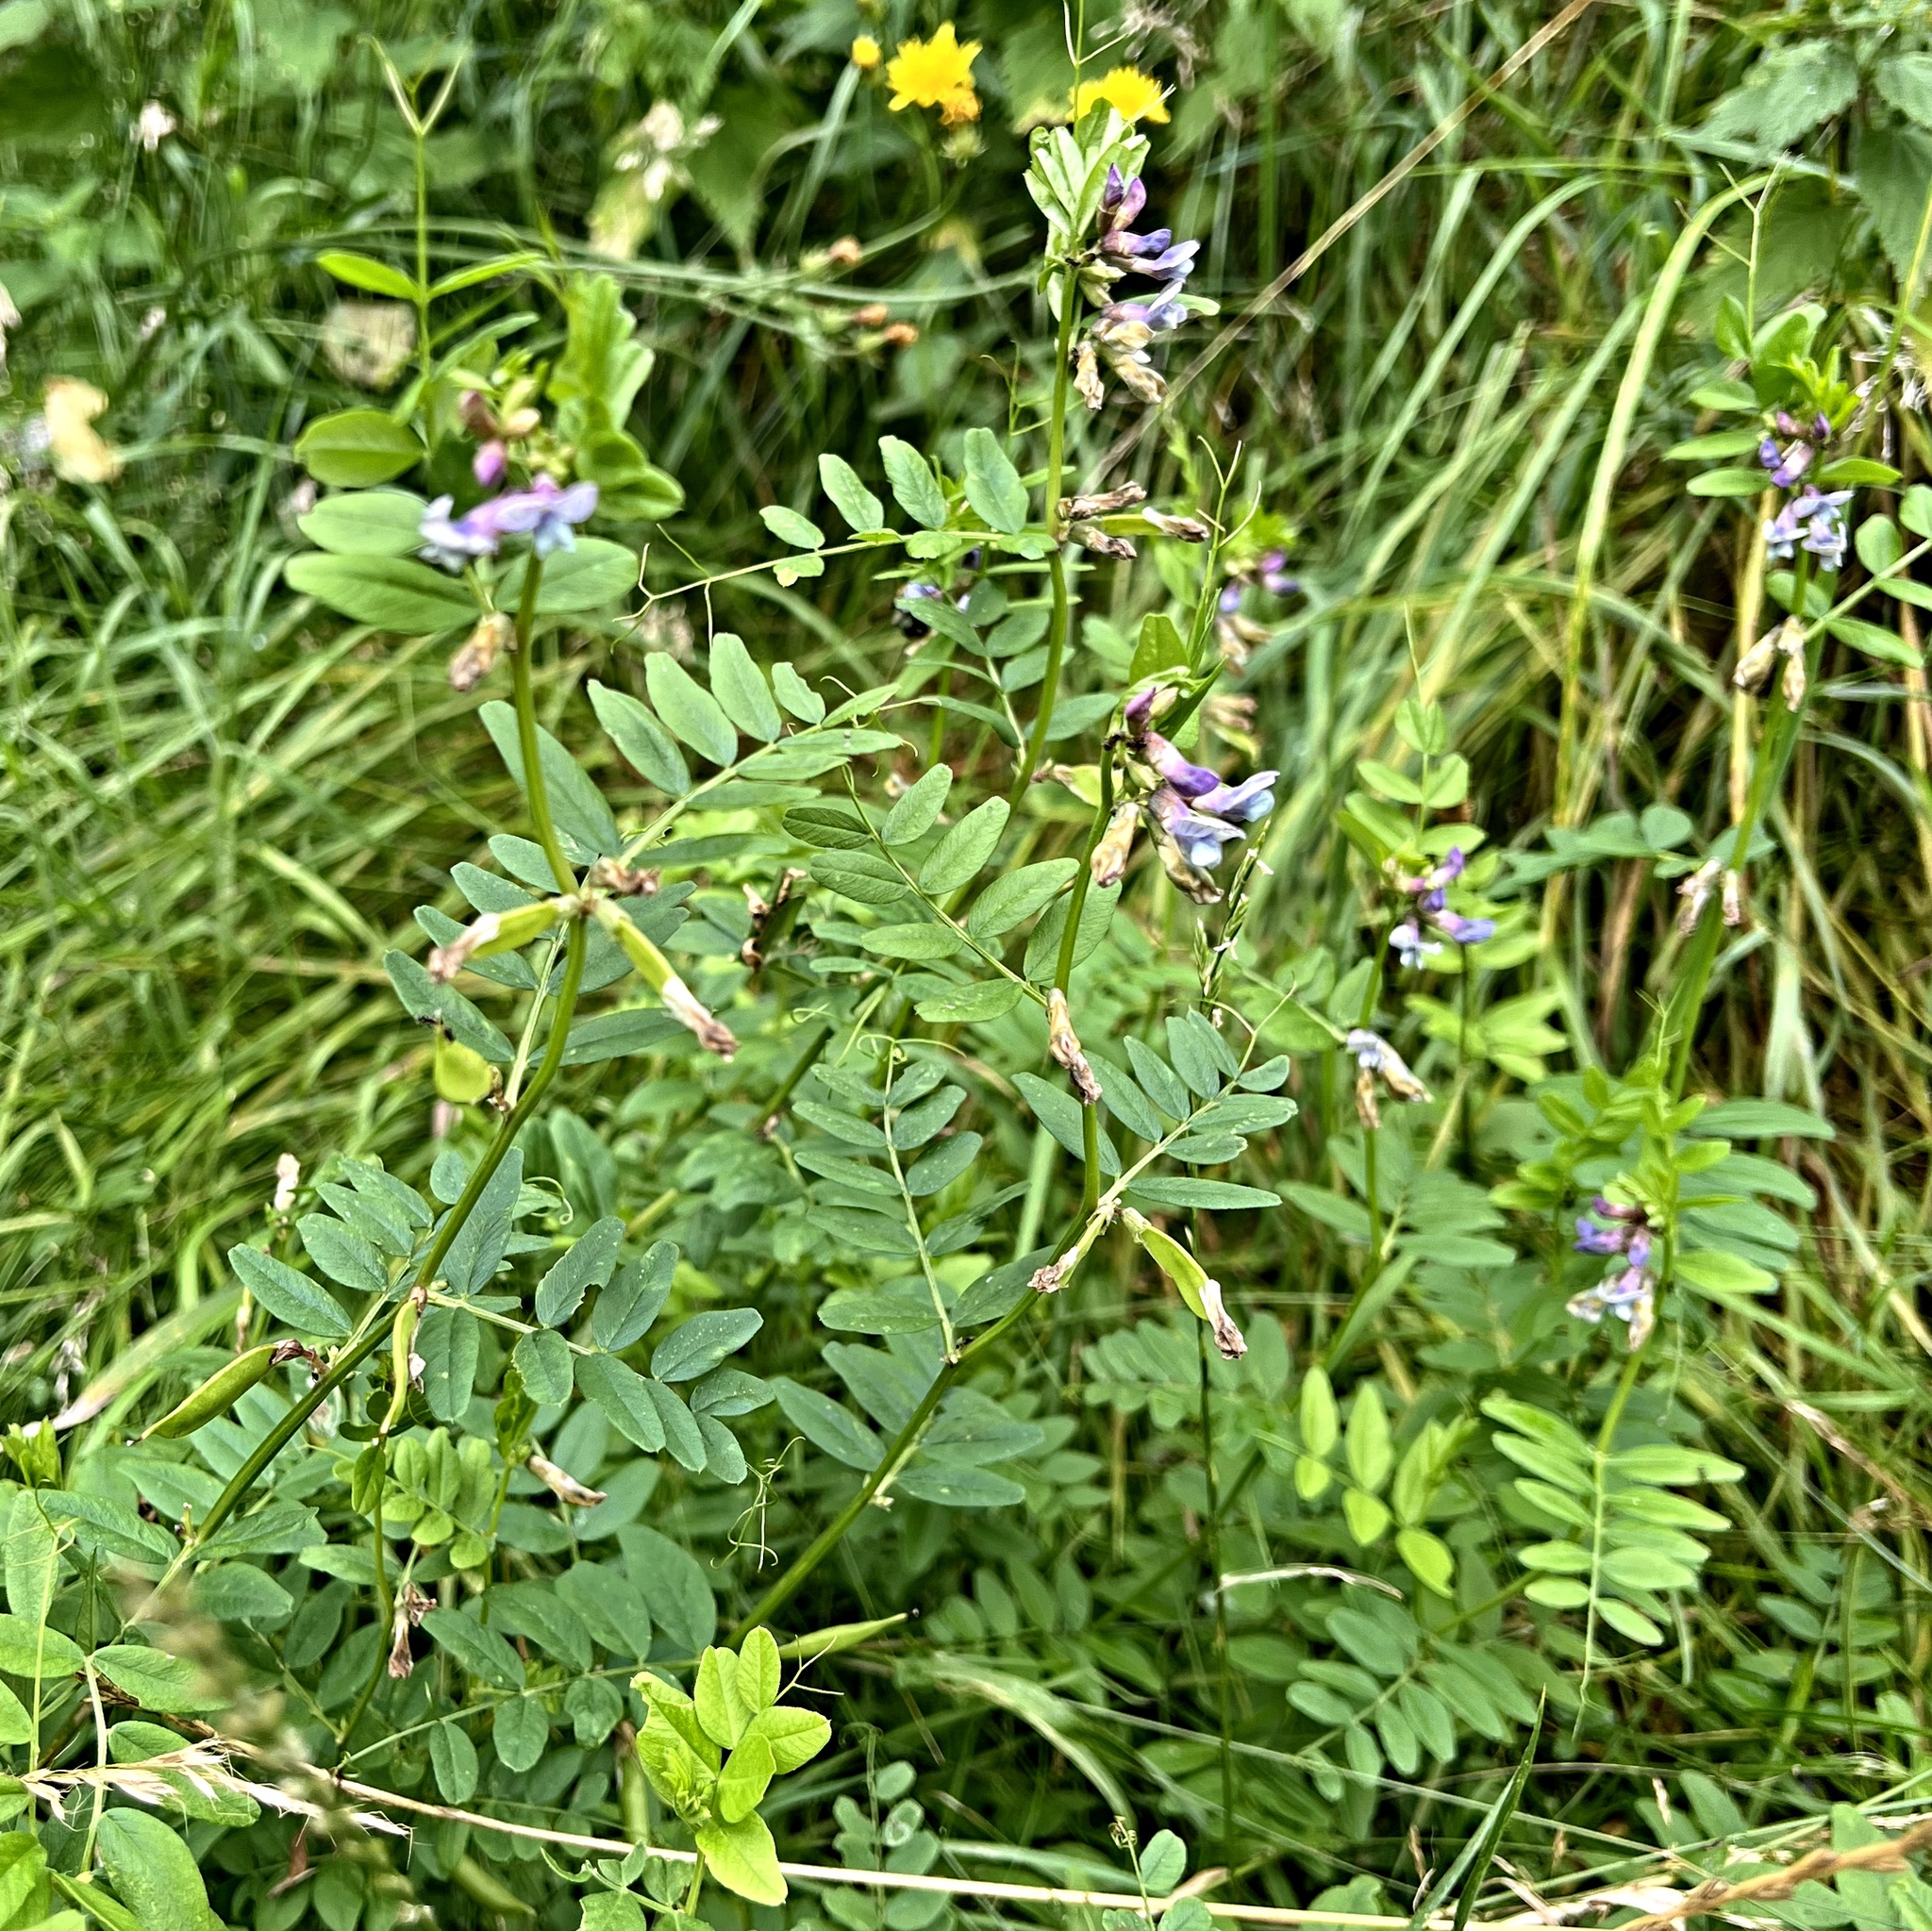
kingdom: Plantae
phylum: Tracheophyta
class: Magnoliopsida
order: Fabales
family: Fabaceae
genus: Vicia
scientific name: Vicia sepium
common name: Bush vetch
